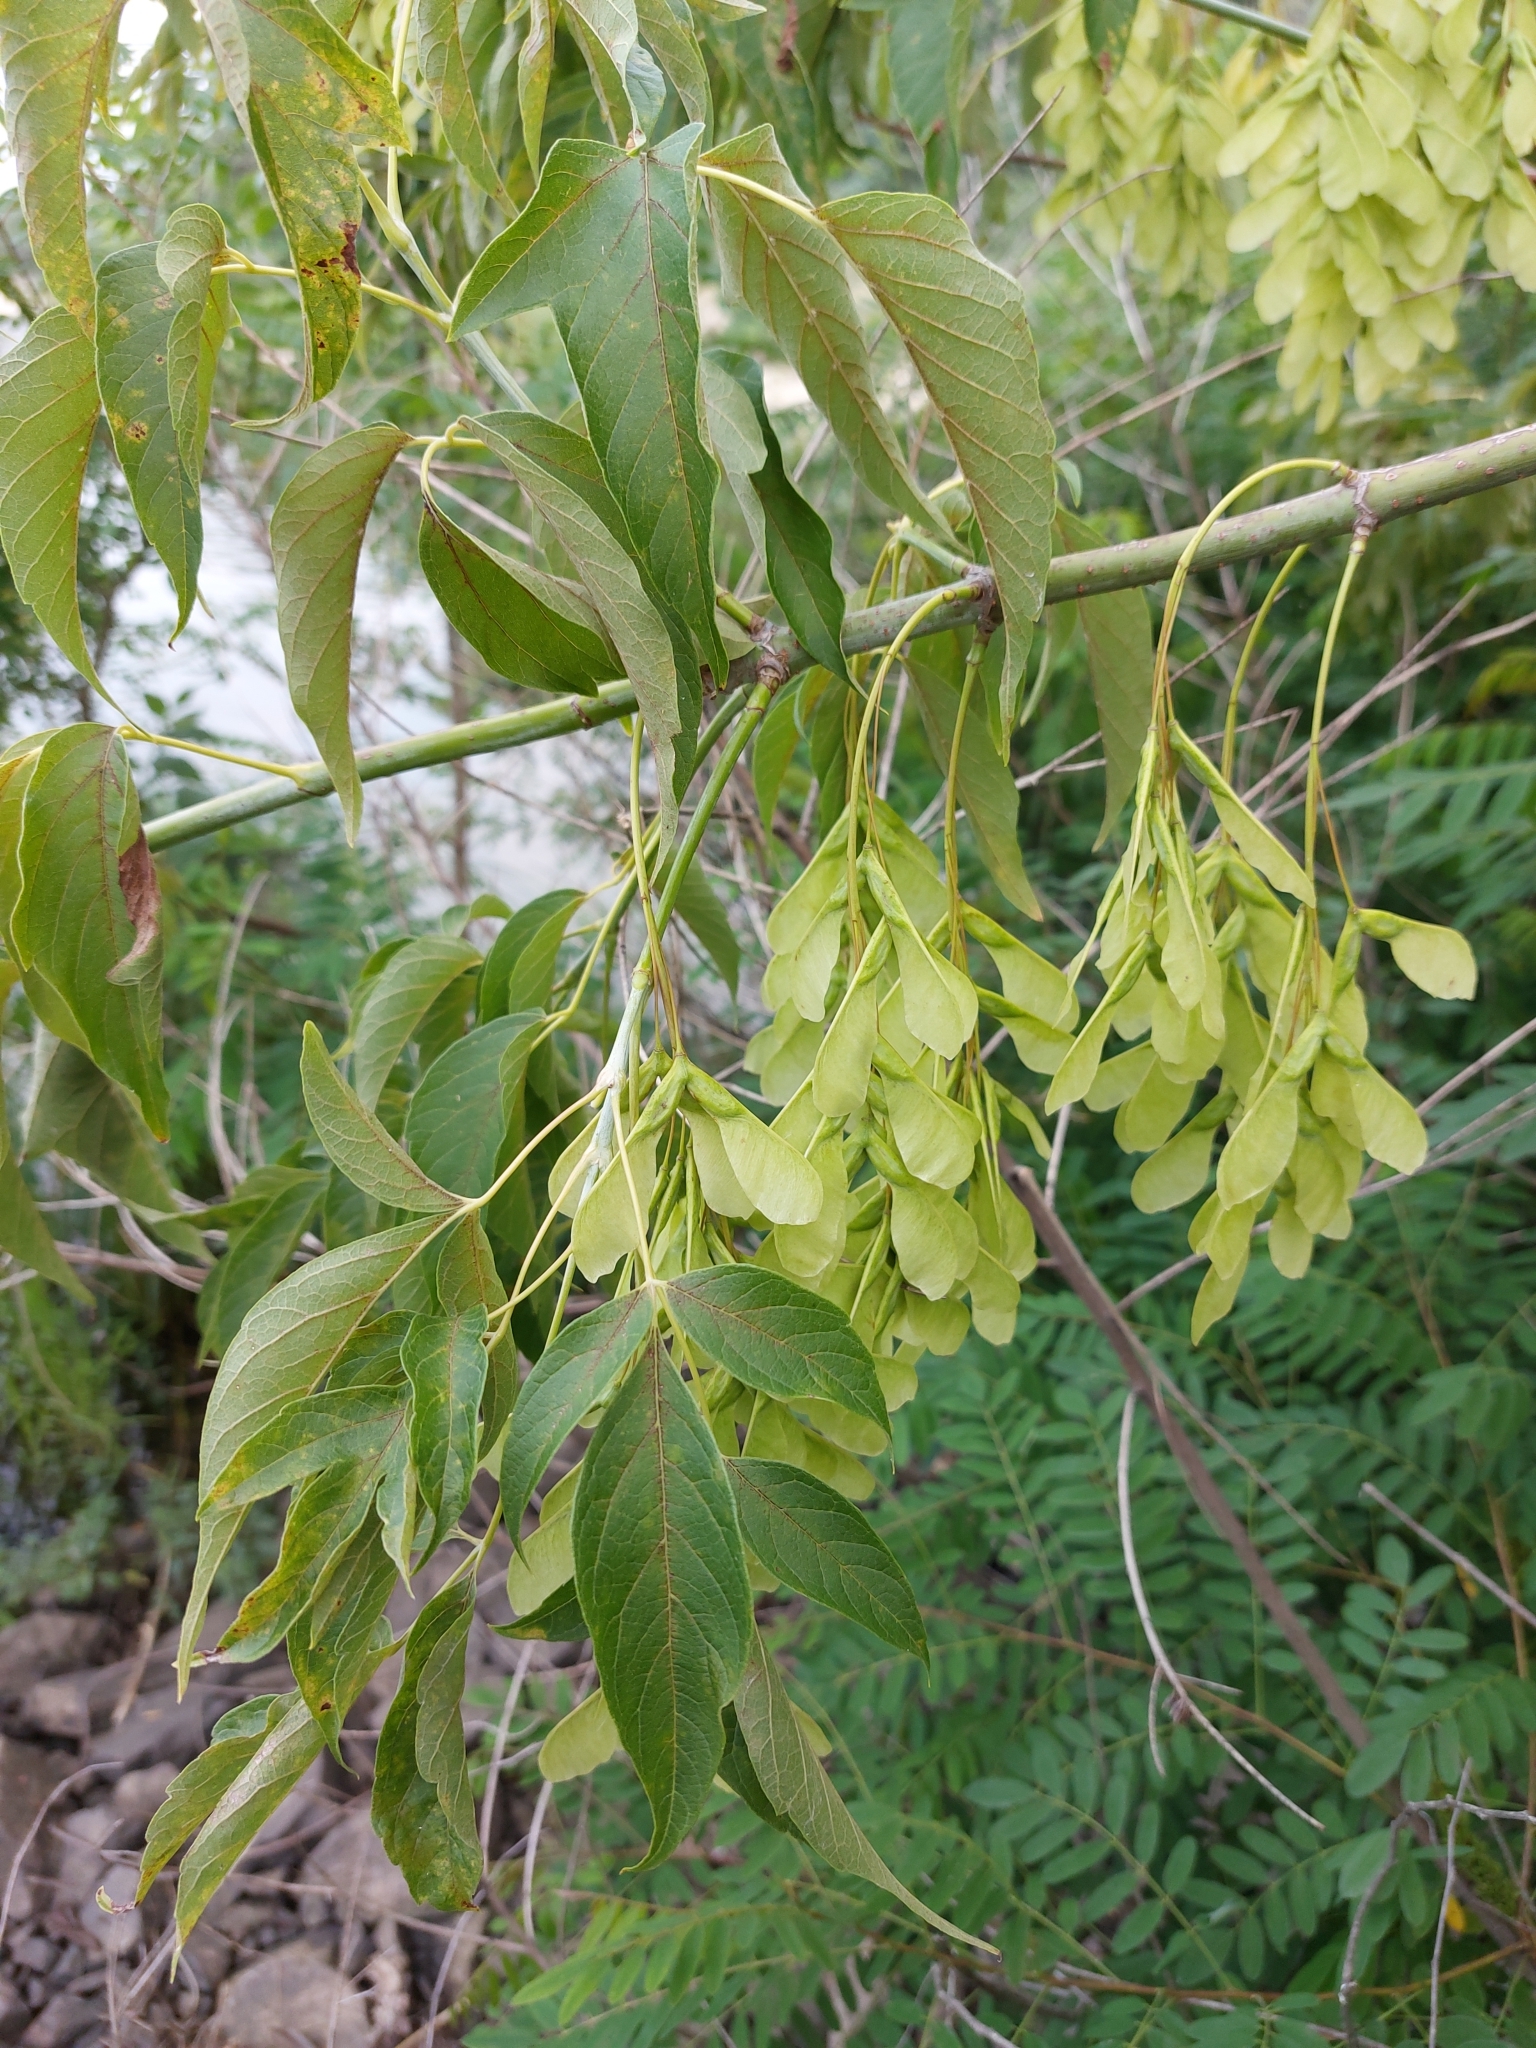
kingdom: Plantae
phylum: Tracheophyta
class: Magnoliopsida
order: Sapindales
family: Sapindaceae
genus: Acer
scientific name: Acer negundo
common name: Ashleaf maple
